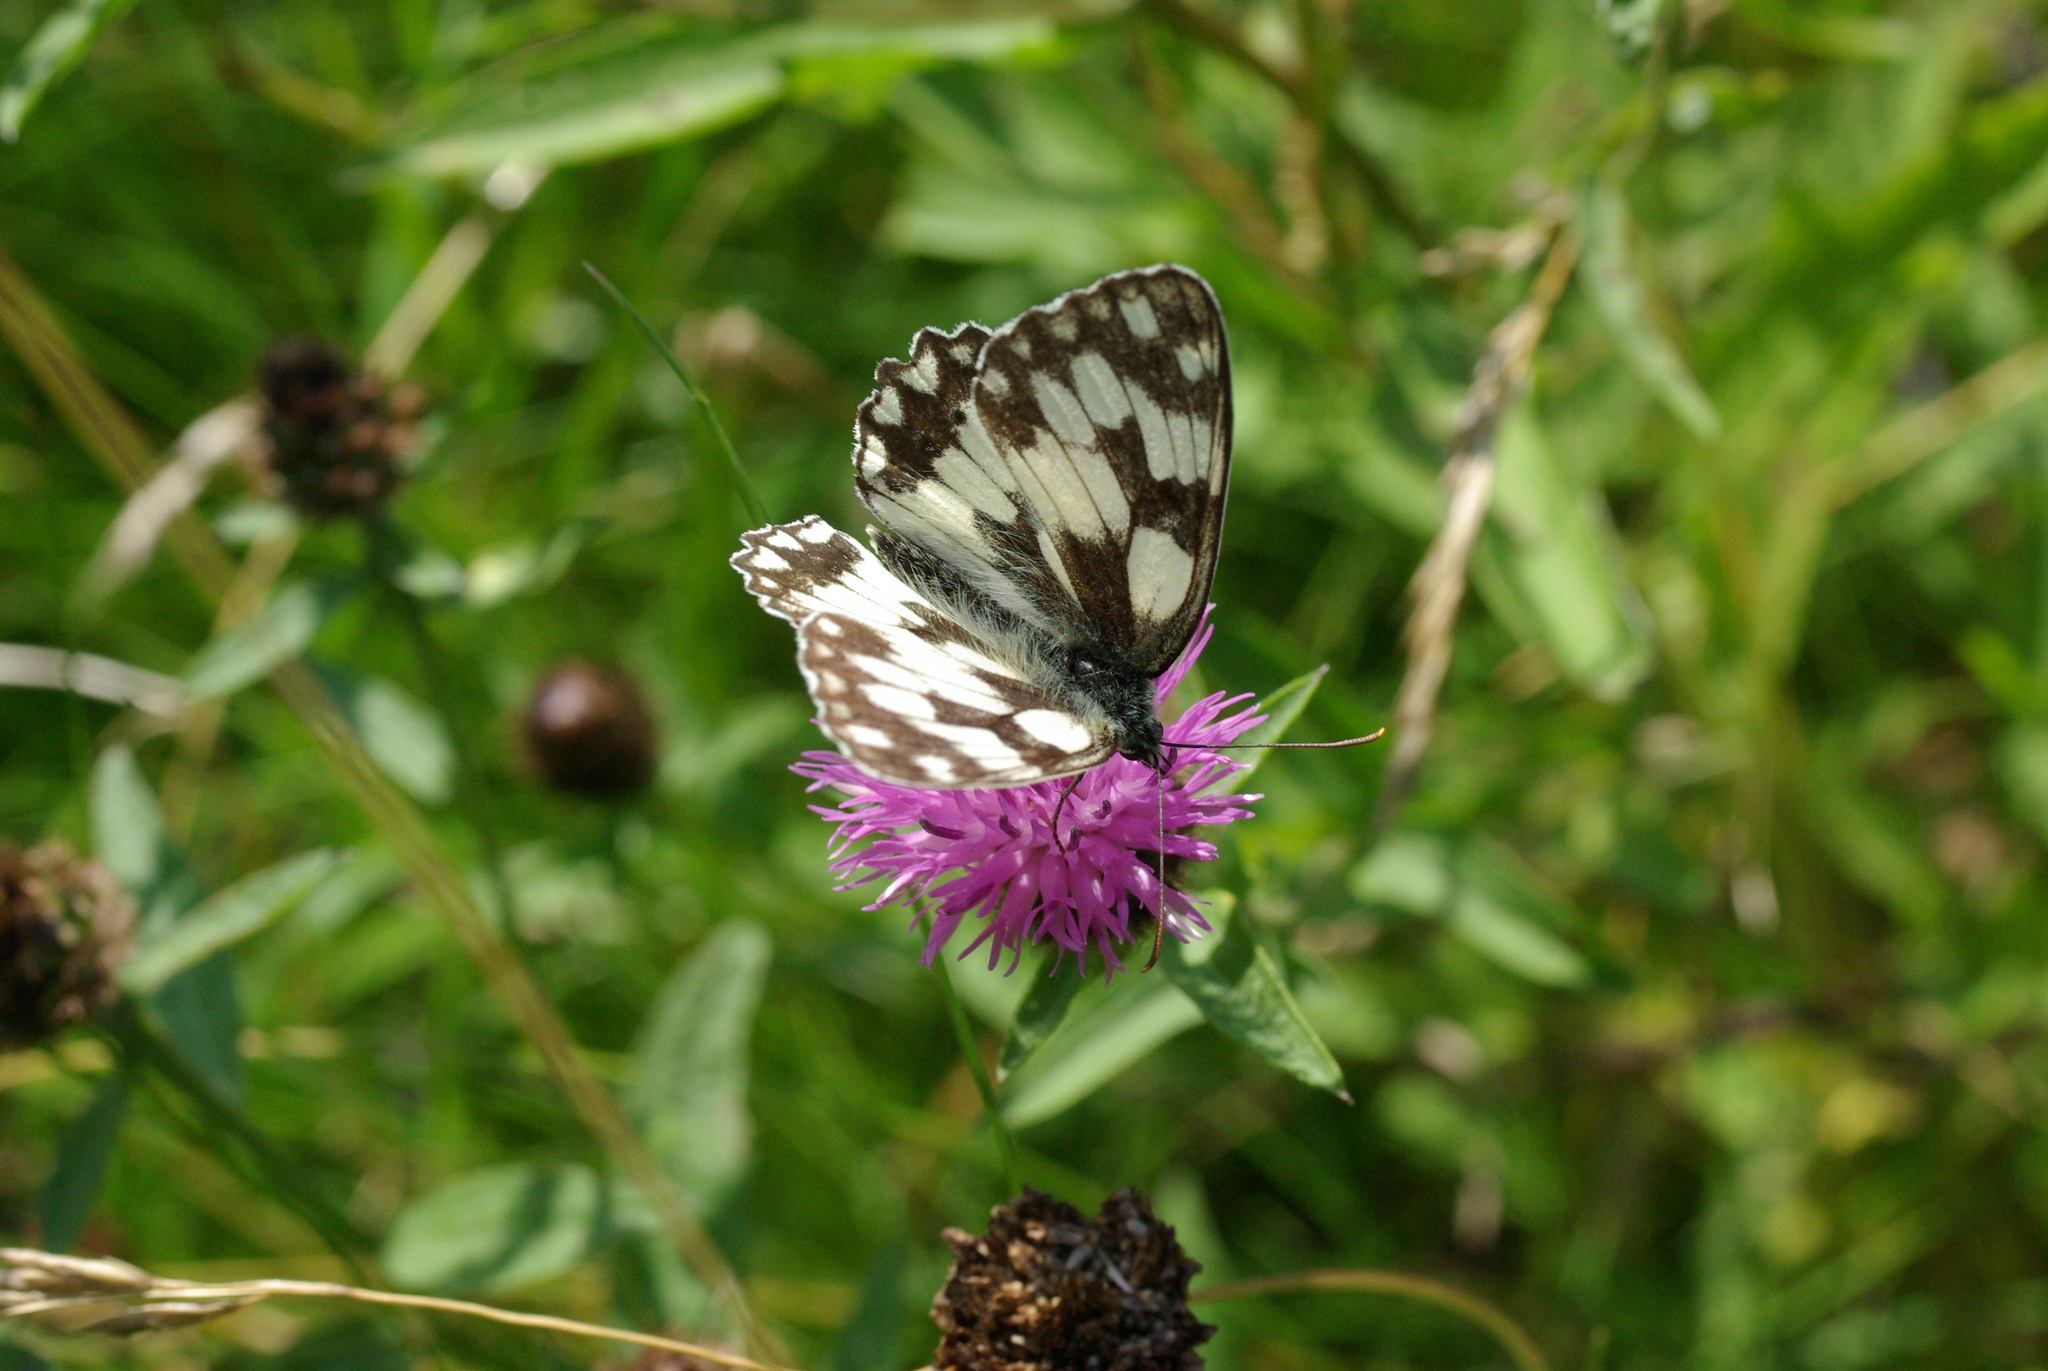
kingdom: Animalia
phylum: Arthropoda
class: Insecta
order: Lepidoptera
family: Nymphalidae
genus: Melanargia
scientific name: Melanargia galathea
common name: Marbled white
